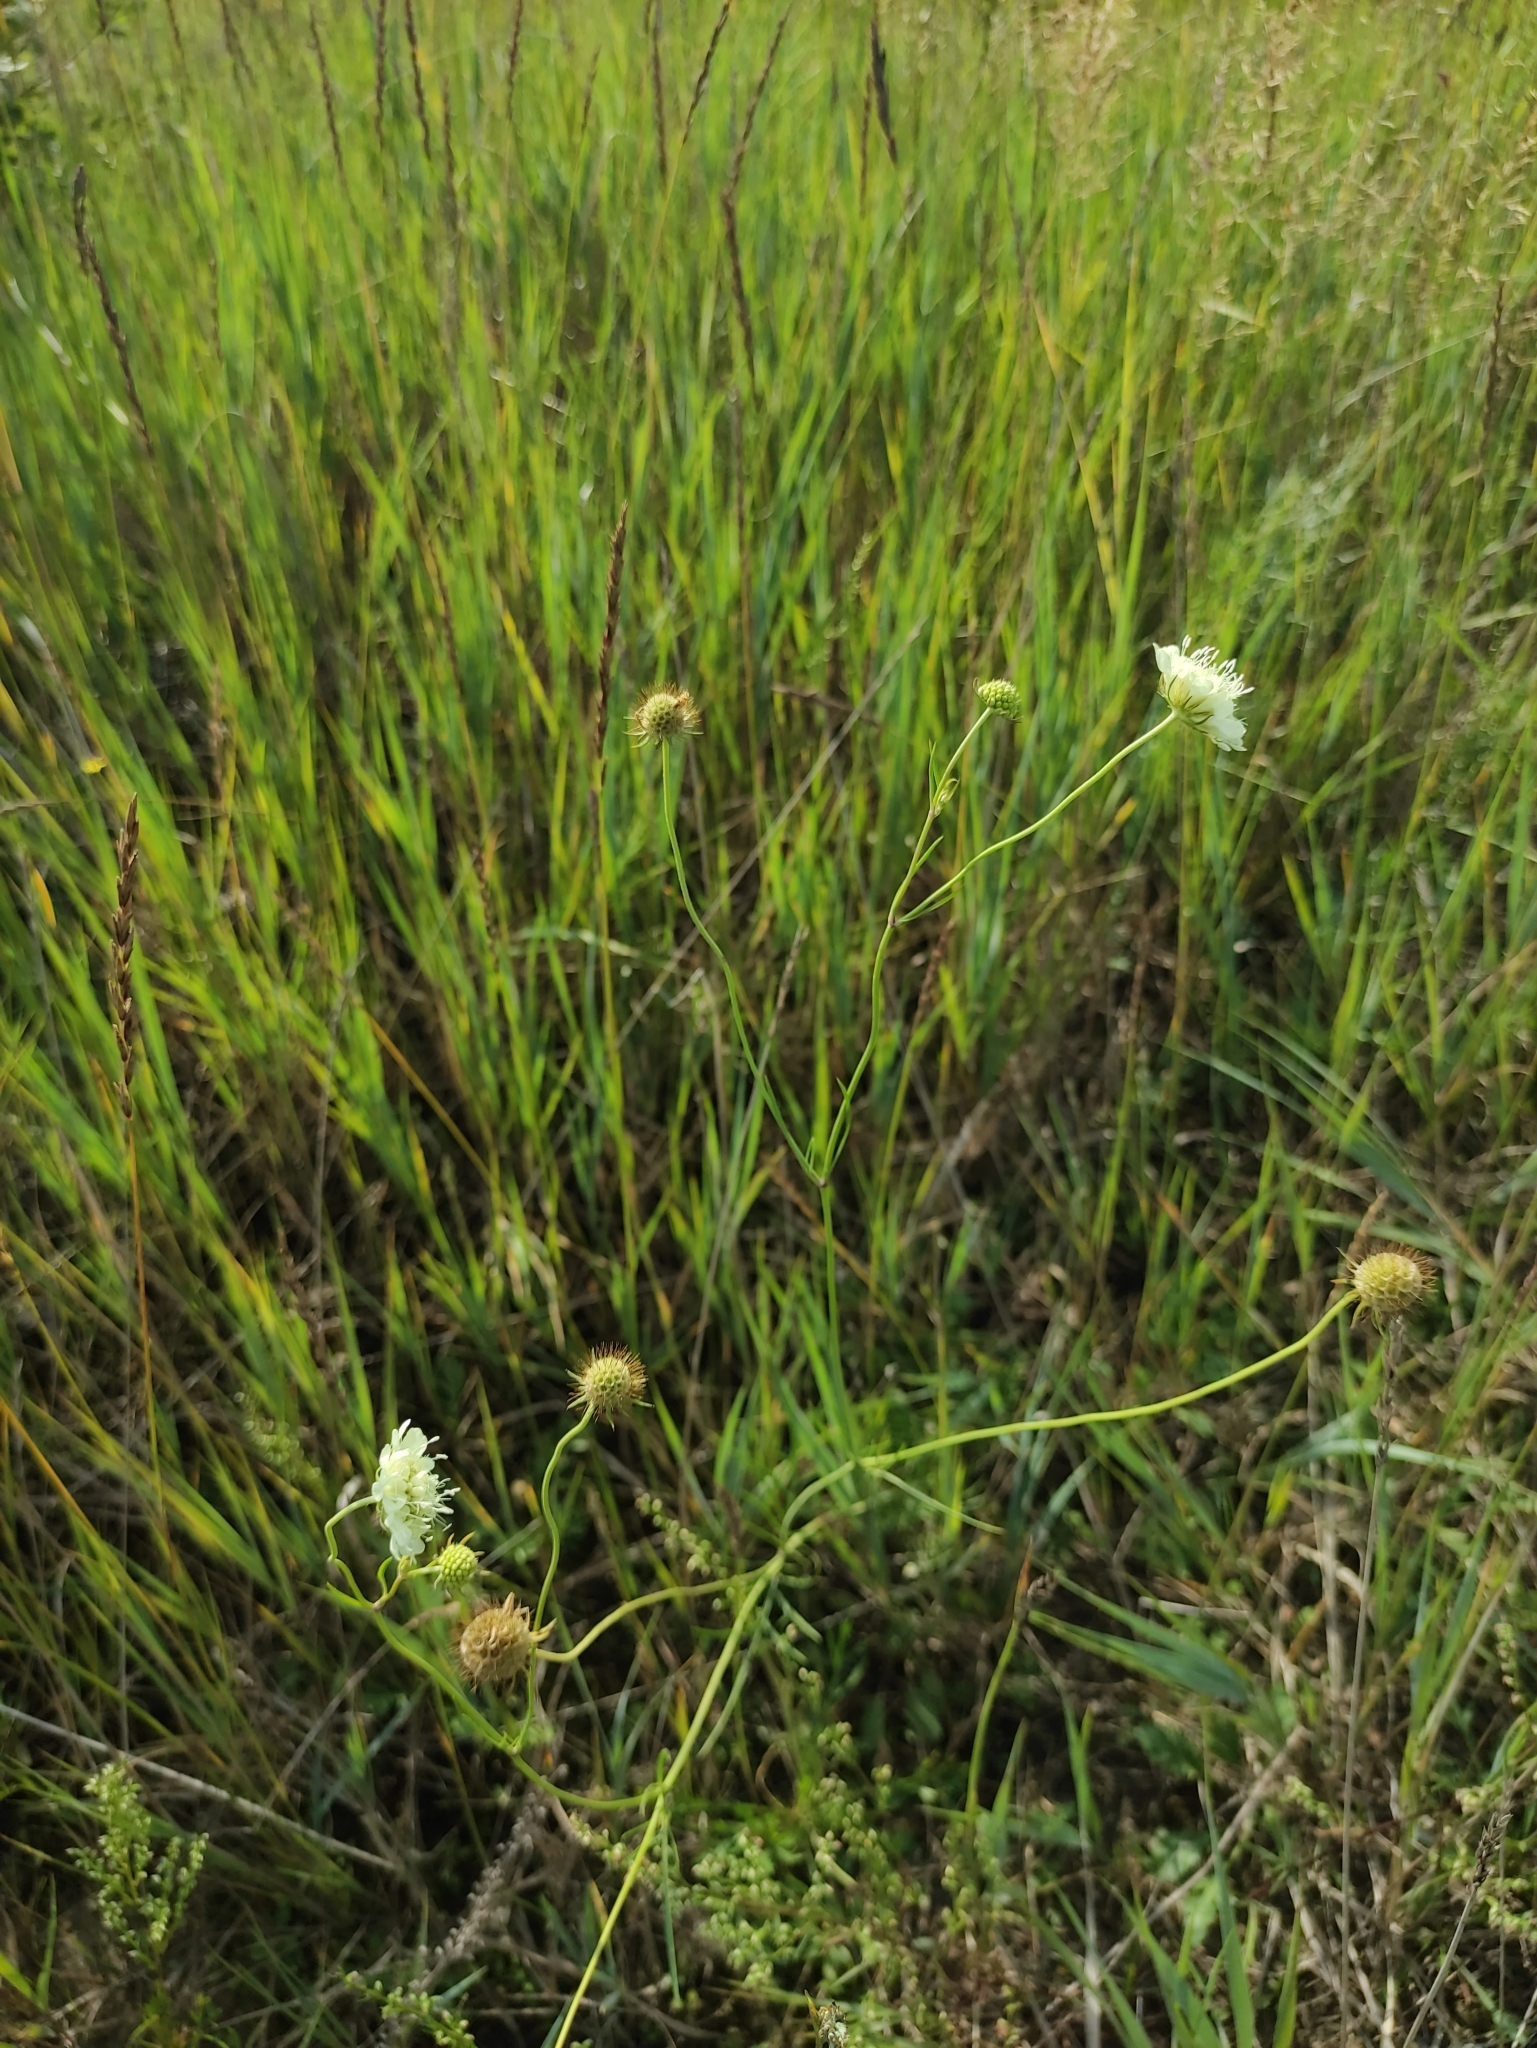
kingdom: Plantae
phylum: Tracheophyta
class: Magnoliopsida
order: Dipsacales
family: Caprifoliaceae
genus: Scabiosa
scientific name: Scabiosa ochroleuca
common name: Cream pincushions
